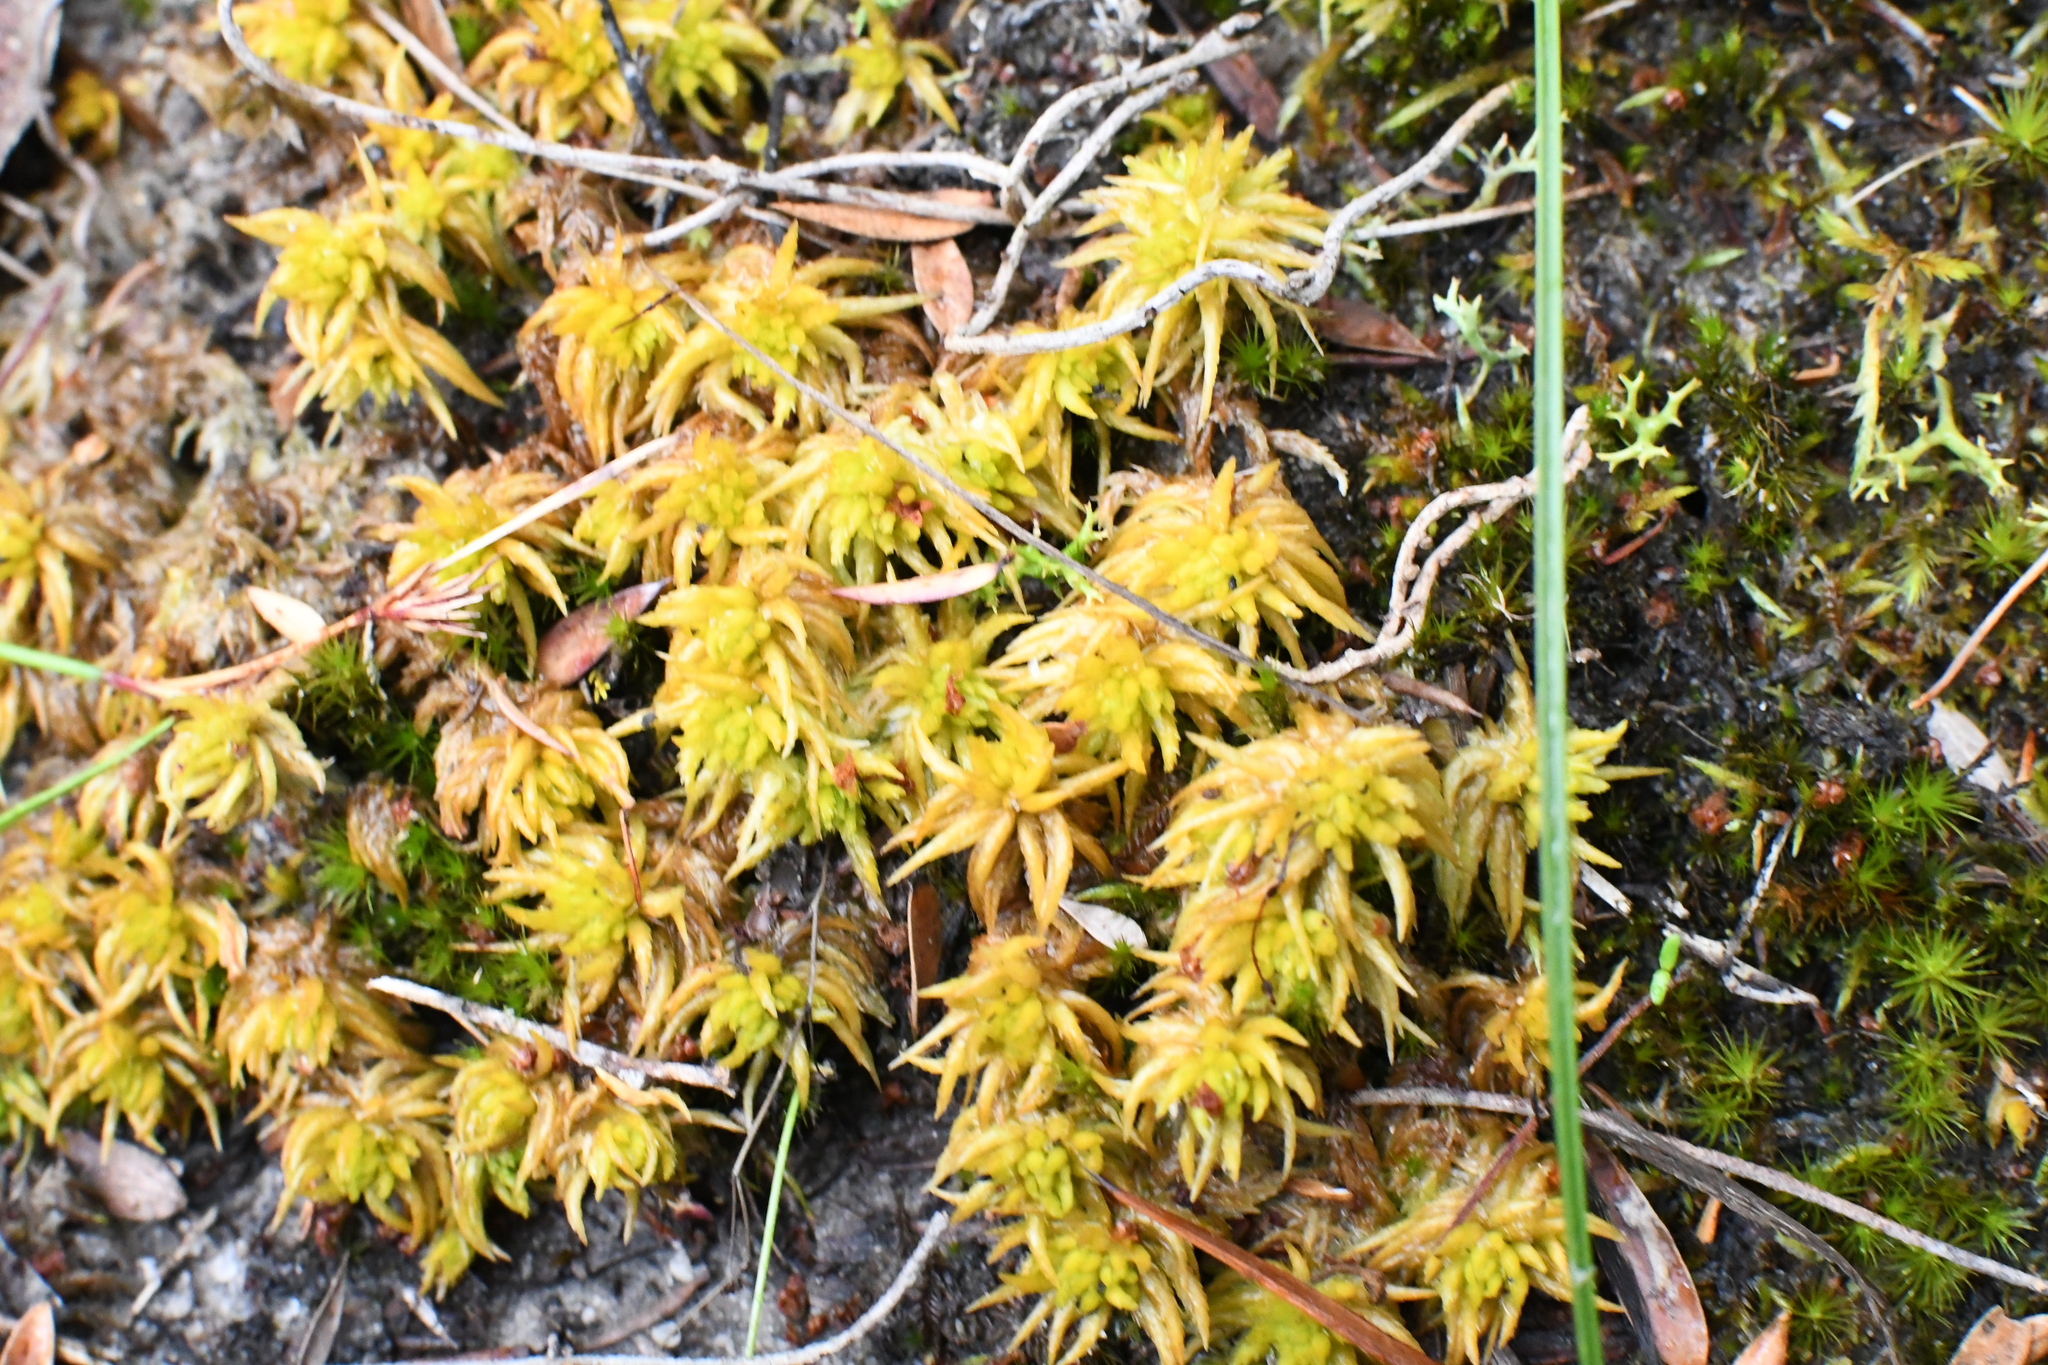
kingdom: Plantae
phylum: Bryophyta
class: Sphagnopsida
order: Sphagnales
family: Sphagnaceae
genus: Sphagnum
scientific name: Sphagnum novozelandicum
